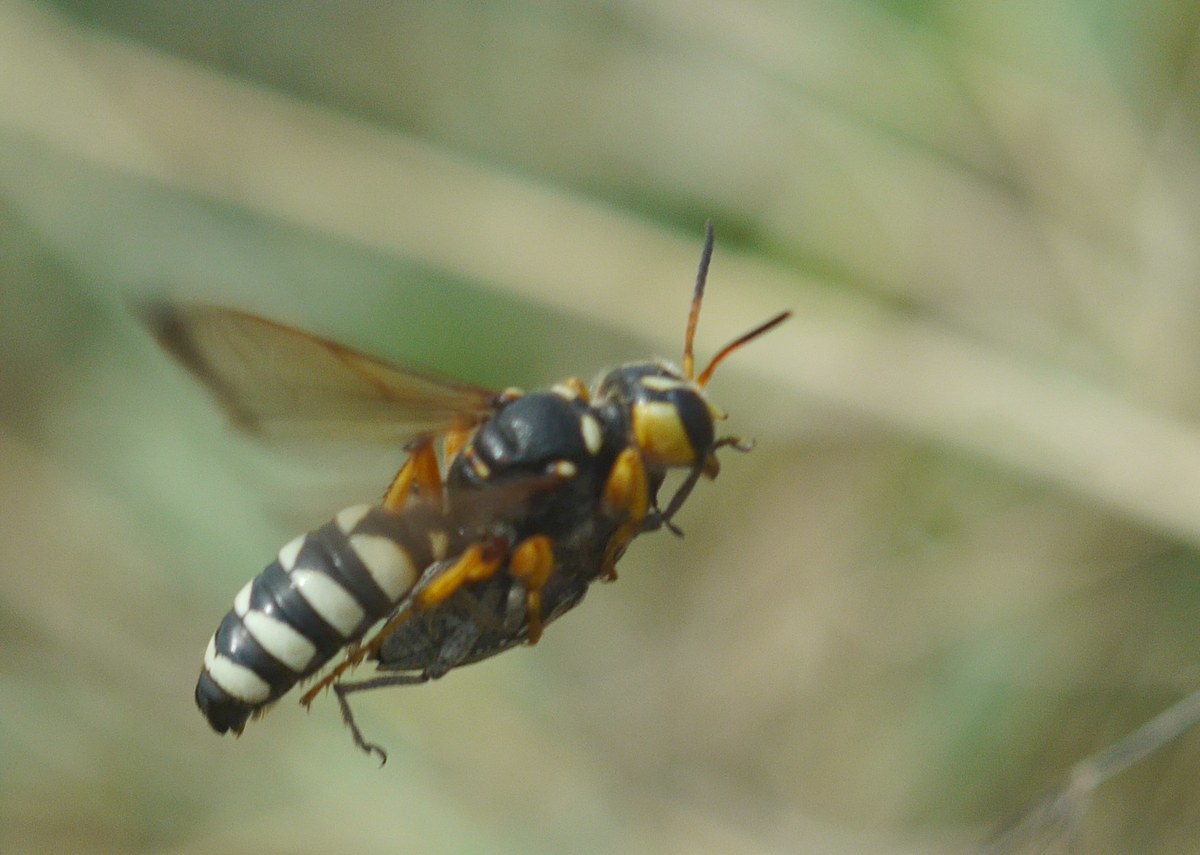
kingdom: Animalia
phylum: Arthropoda
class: Insecta
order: Hymenoptera
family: Crabronidae
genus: Cerceris
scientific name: Cerceris tuberculata
